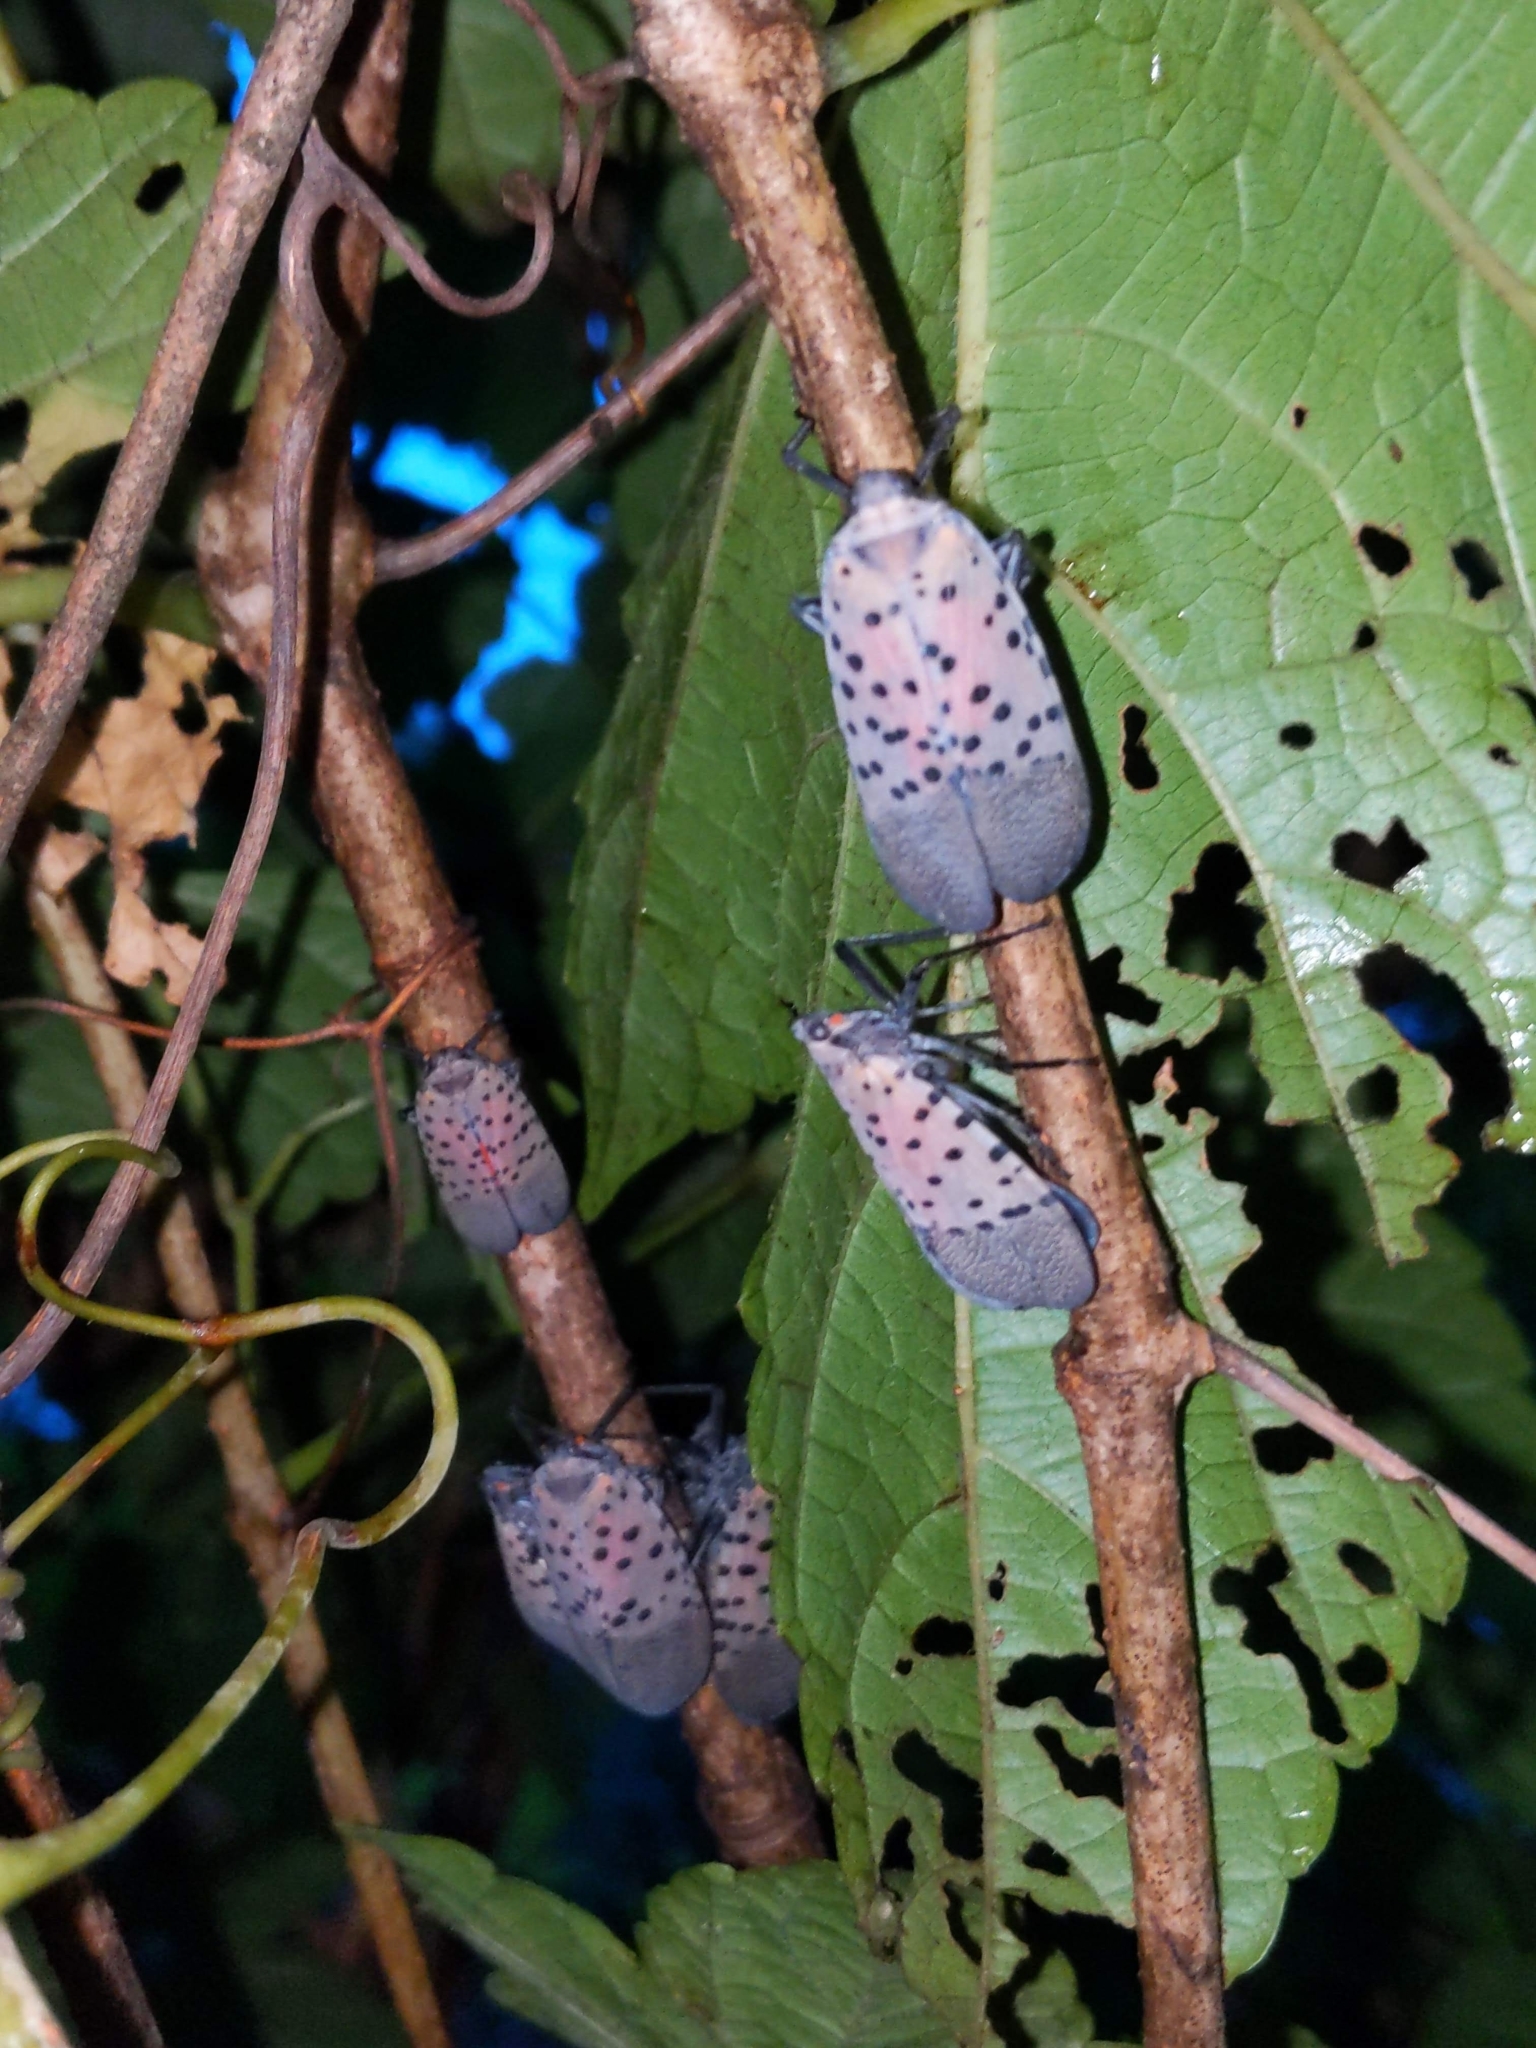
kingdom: Animalia
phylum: Arthropoda
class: Insecta
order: Hemiptera
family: Fulgoridae
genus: Lycorma
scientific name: Lycorma delicatula
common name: Spotted lanternfly
